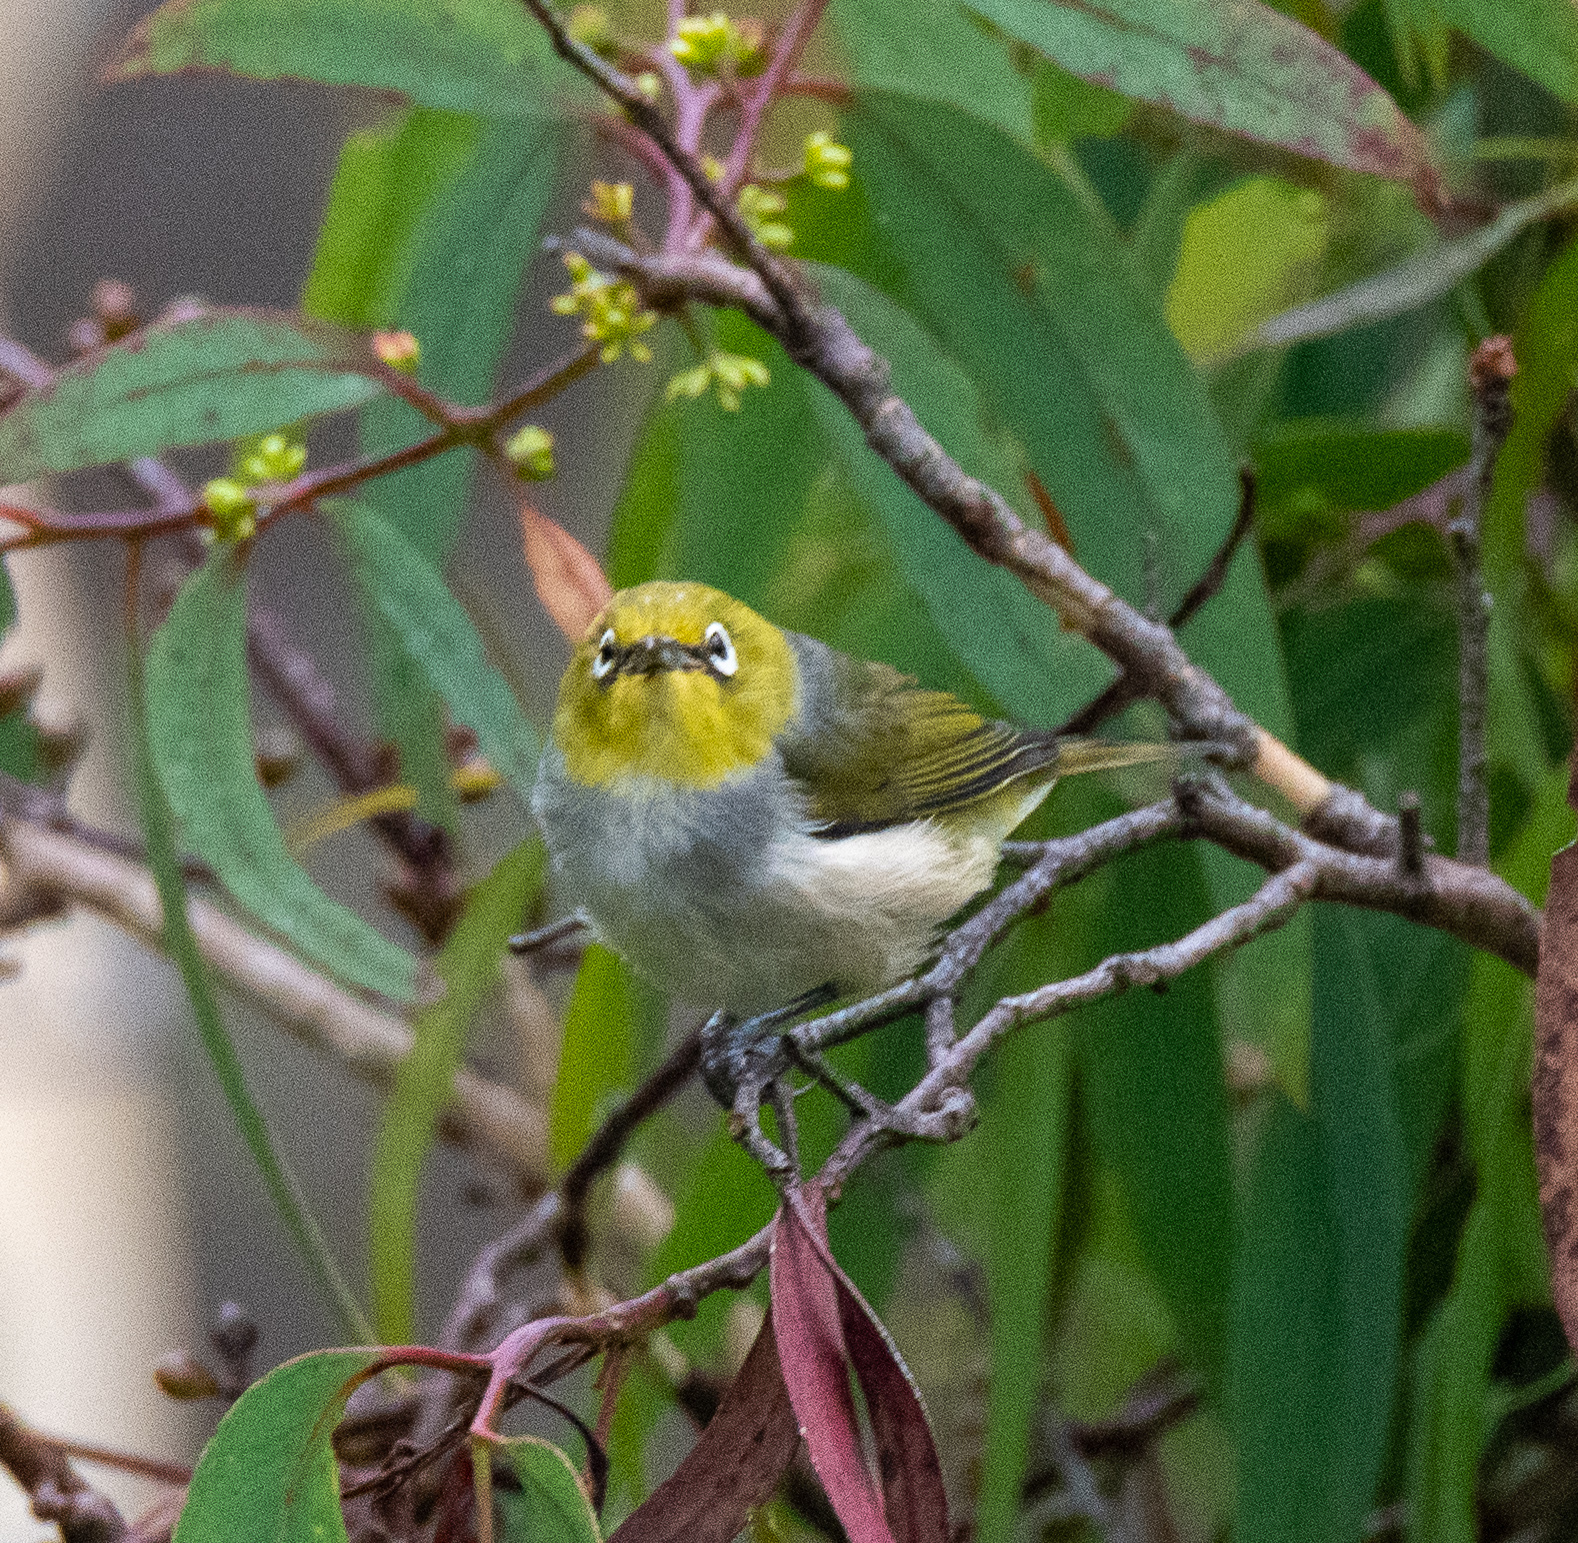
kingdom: Animalia
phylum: Chordata
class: Aves
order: Passeriformes
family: Zosteropidae
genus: Zosterops
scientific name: Zosterops lateralis
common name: Silvereye
